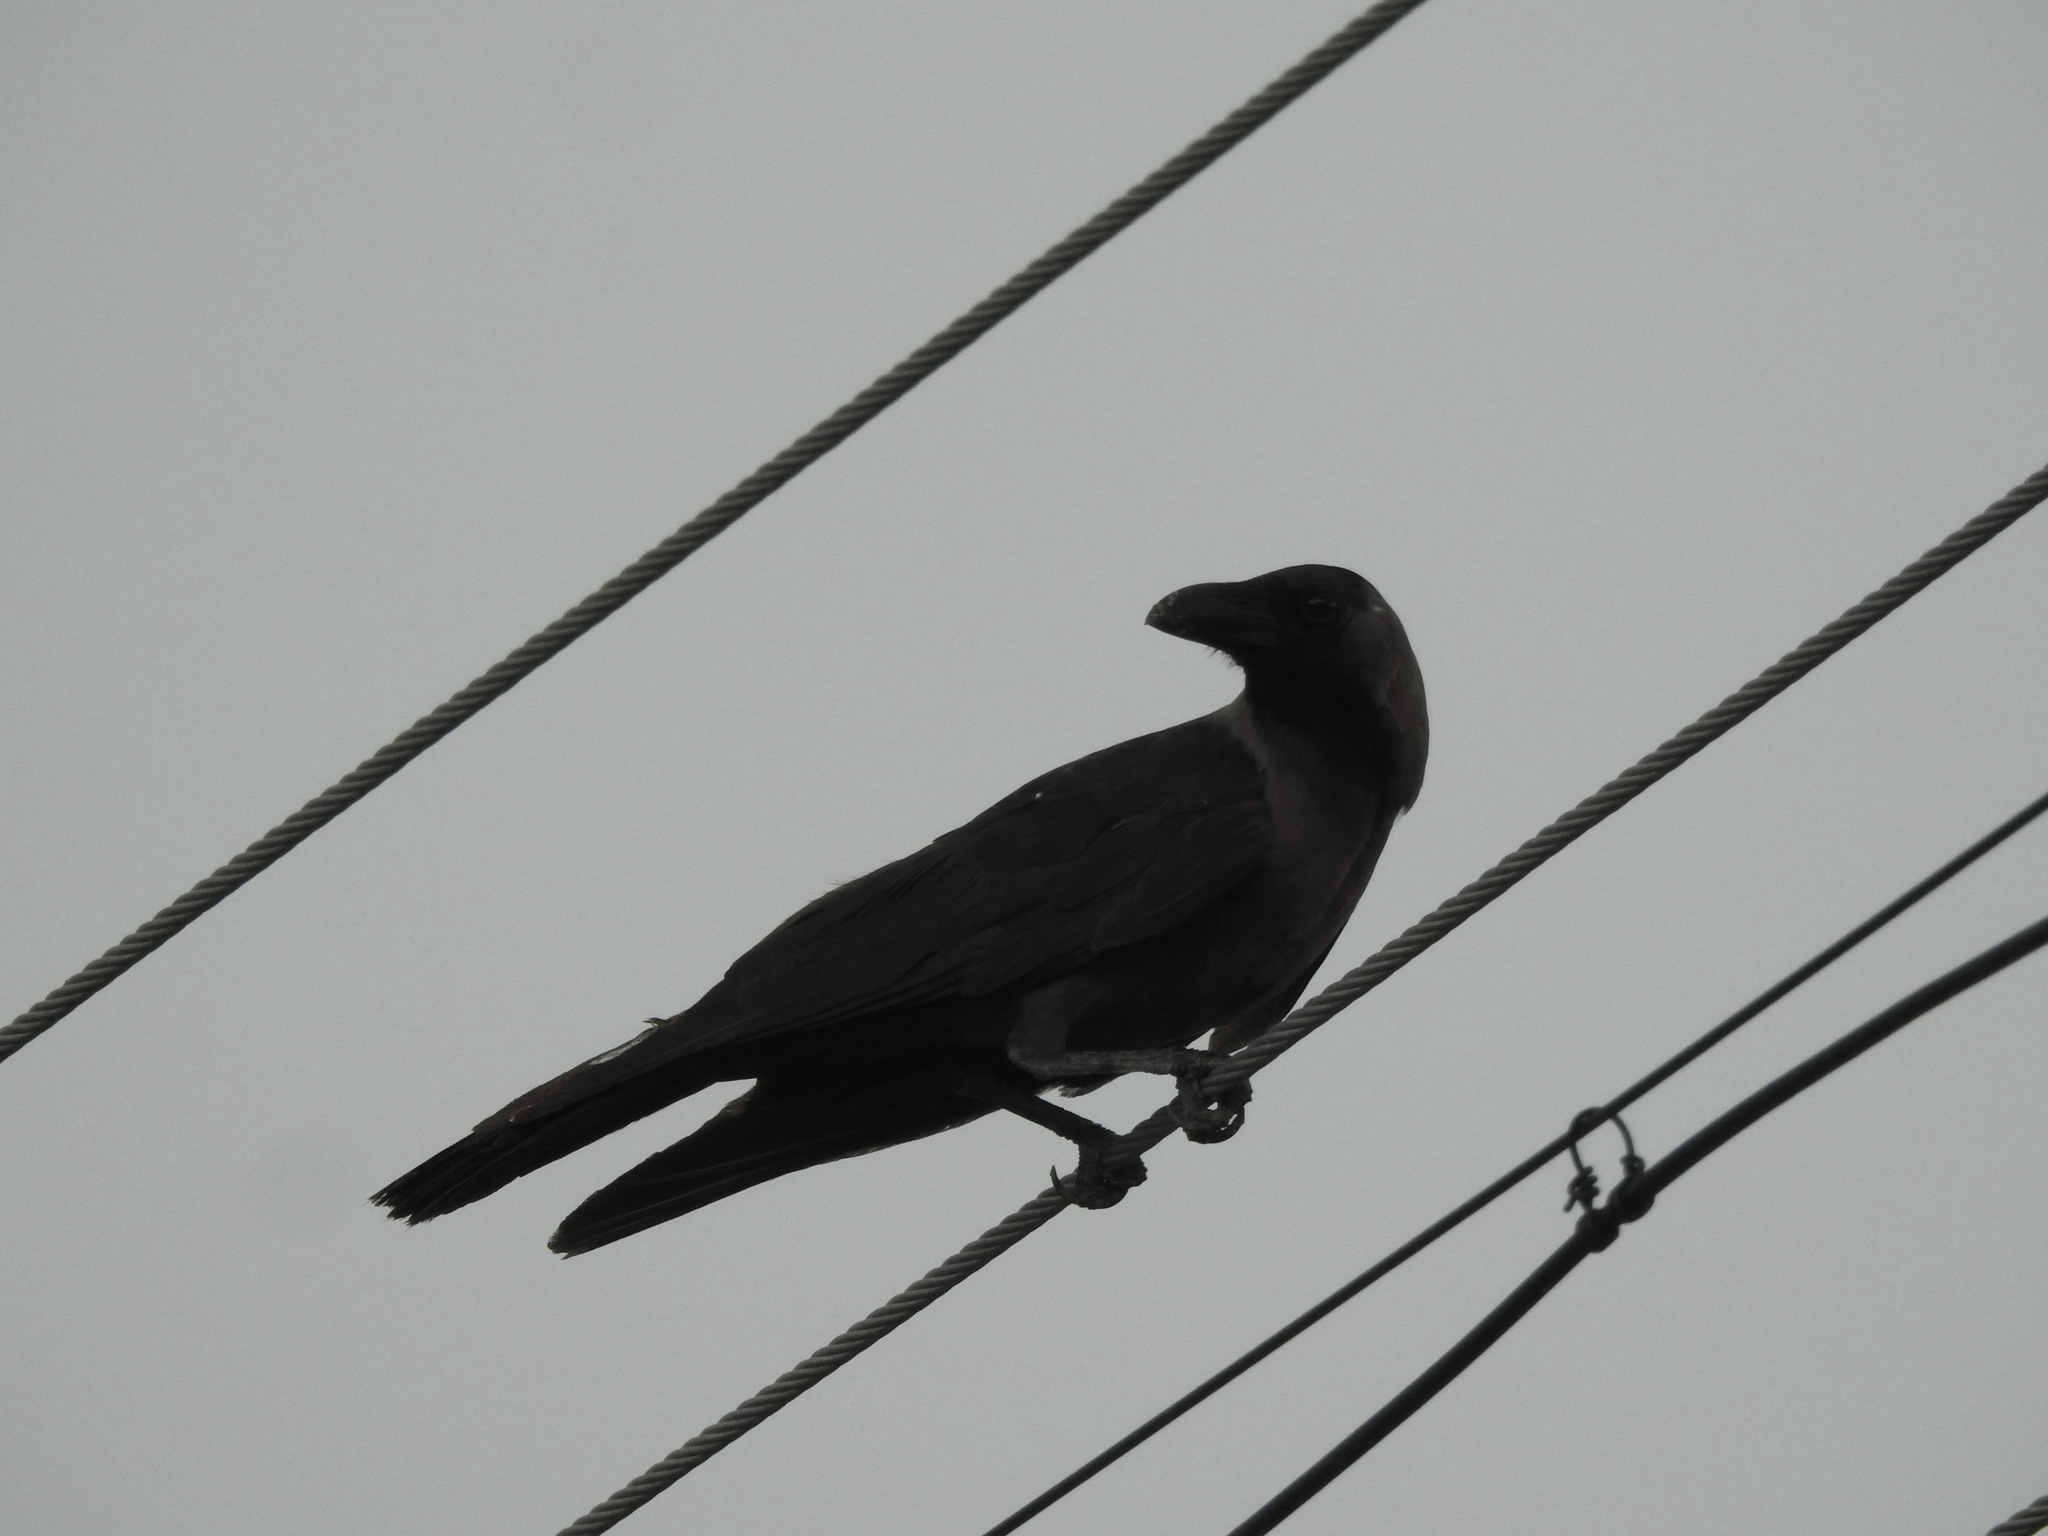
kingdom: Animalia
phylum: Chordata
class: Aves
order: Passeriformes
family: Corvidae
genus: Corvus
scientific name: Corvus splendens
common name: House crow
